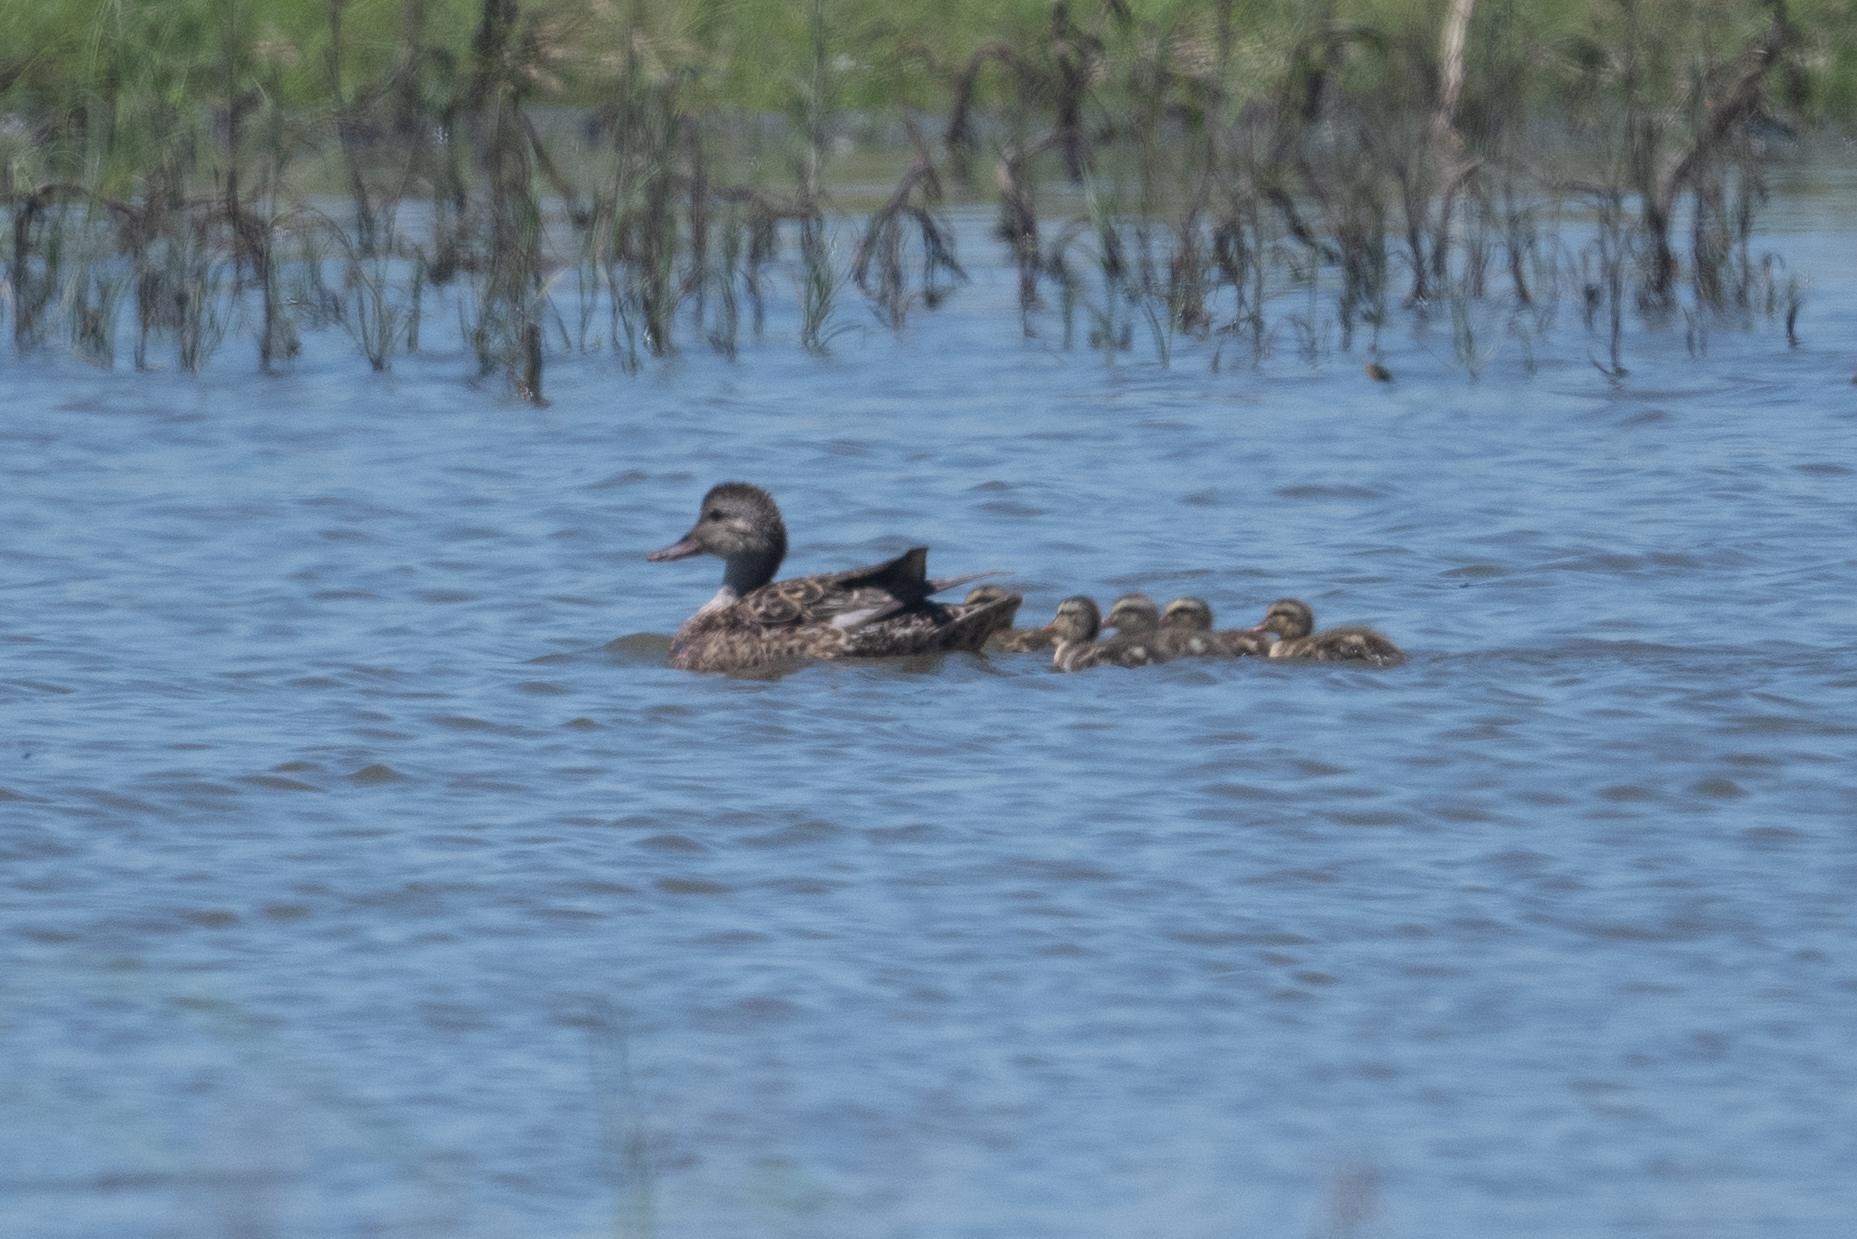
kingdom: Animalia
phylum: Chordata
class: Aves
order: Anseriformes
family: Anatidae
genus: Mareca
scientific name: Mareca strepera
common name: Gadwall
